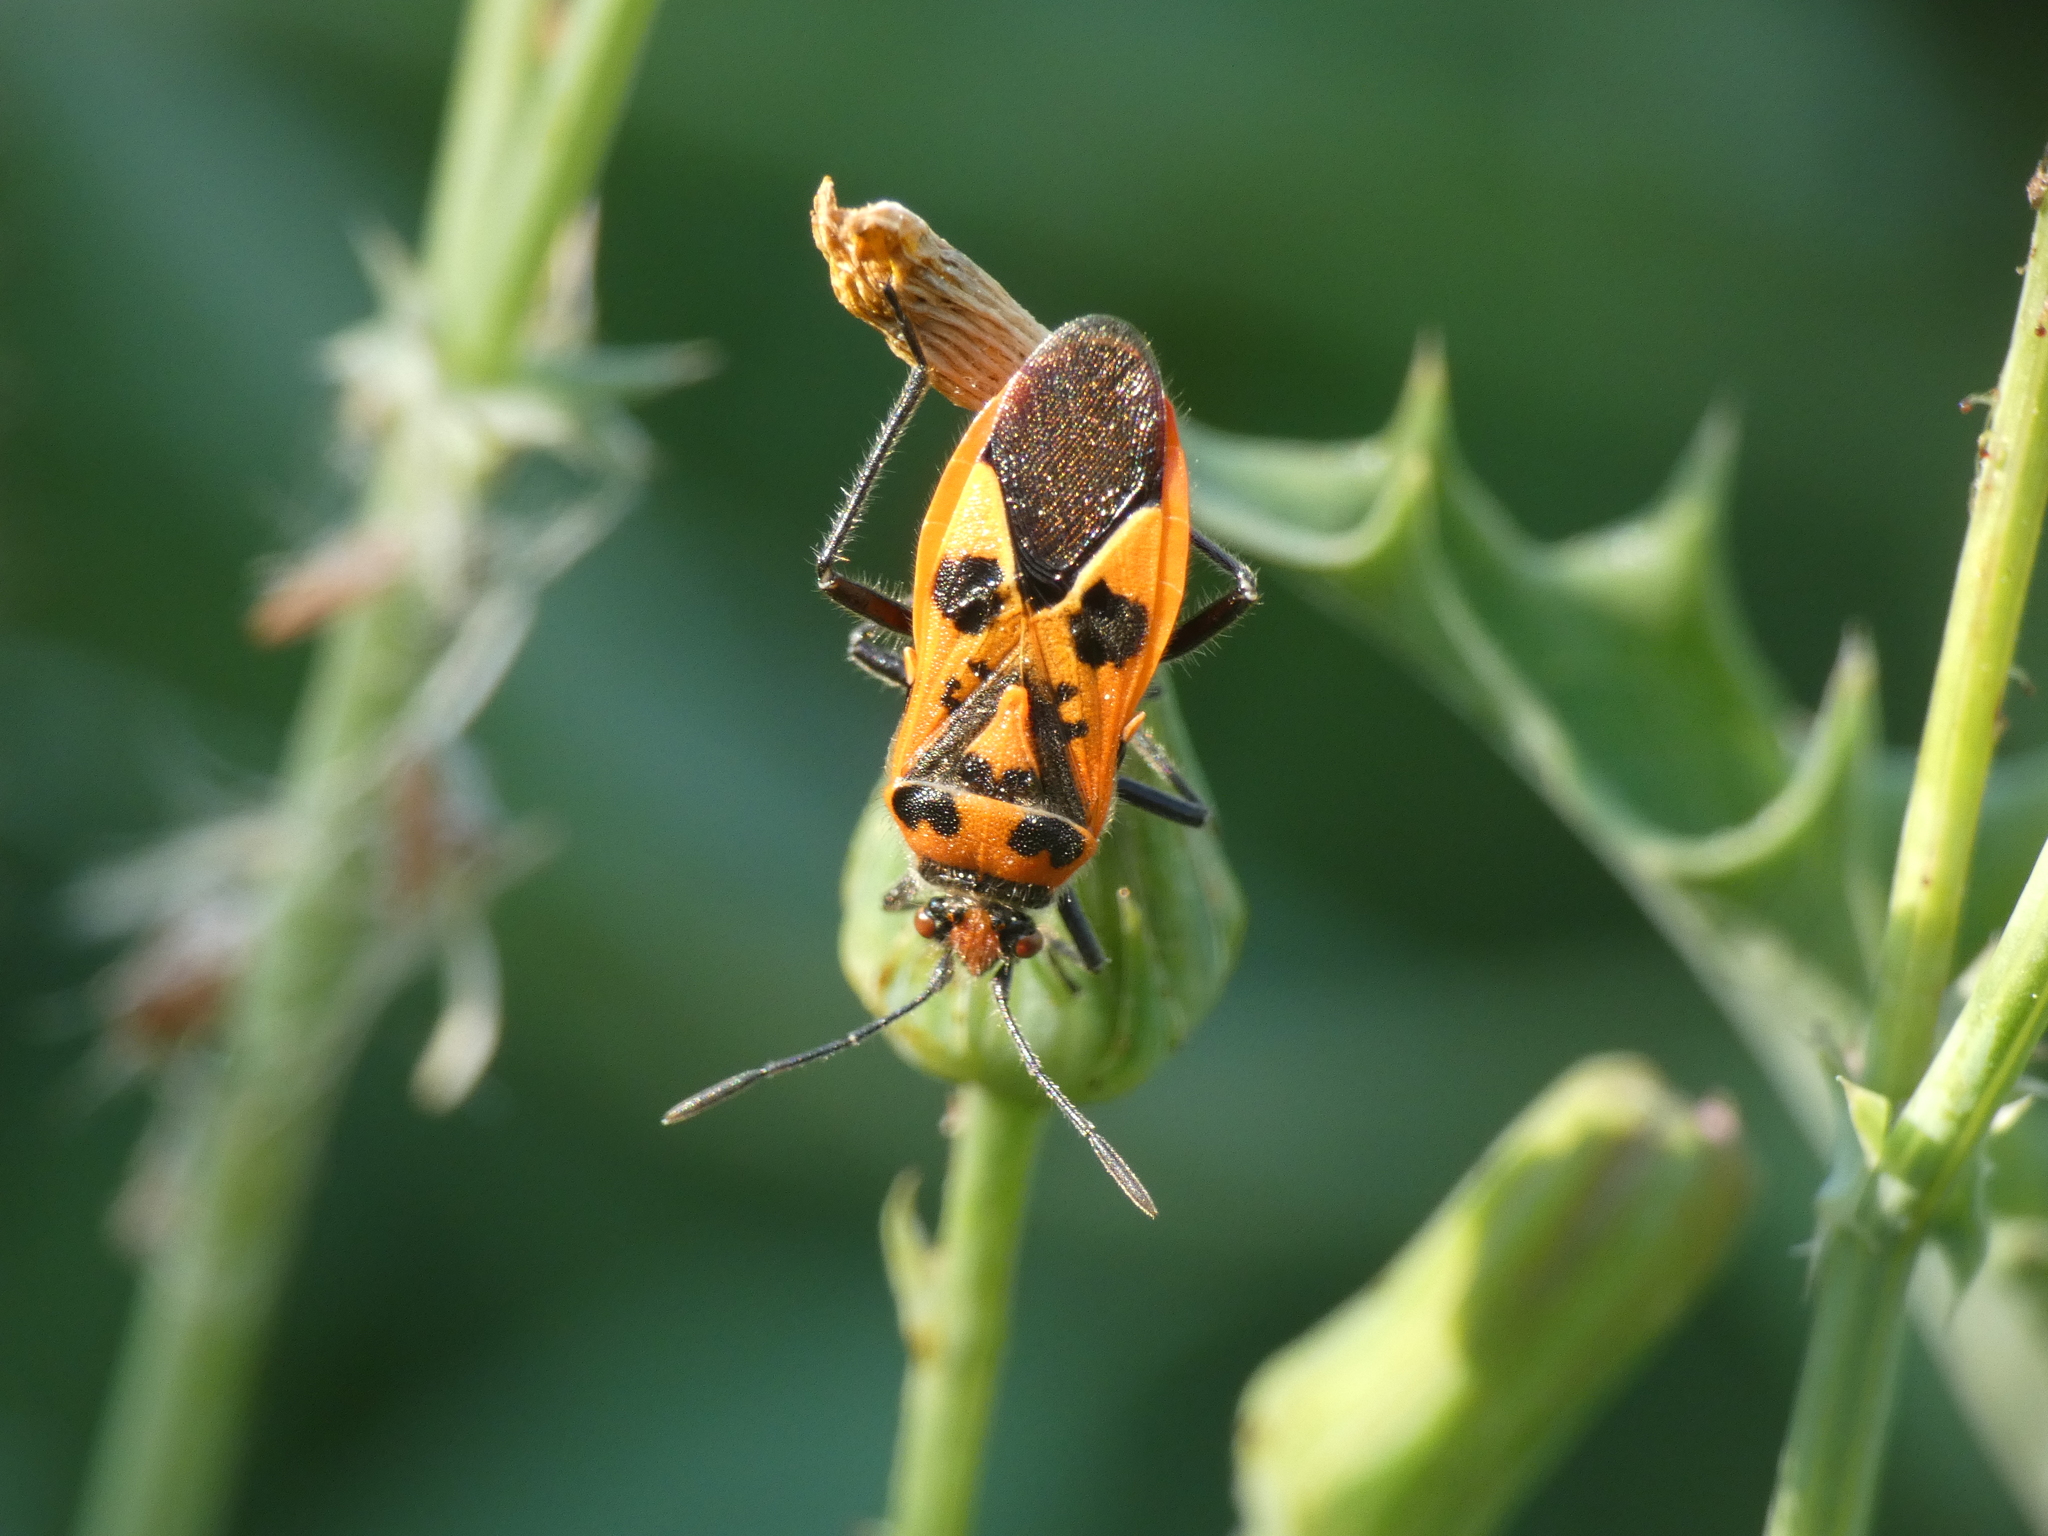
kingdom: Animalia
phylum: Arthropoda
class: Insecta
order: Hemiptera
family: Rhopalidae
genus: Corizus
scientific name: Corizus hyoscyami
